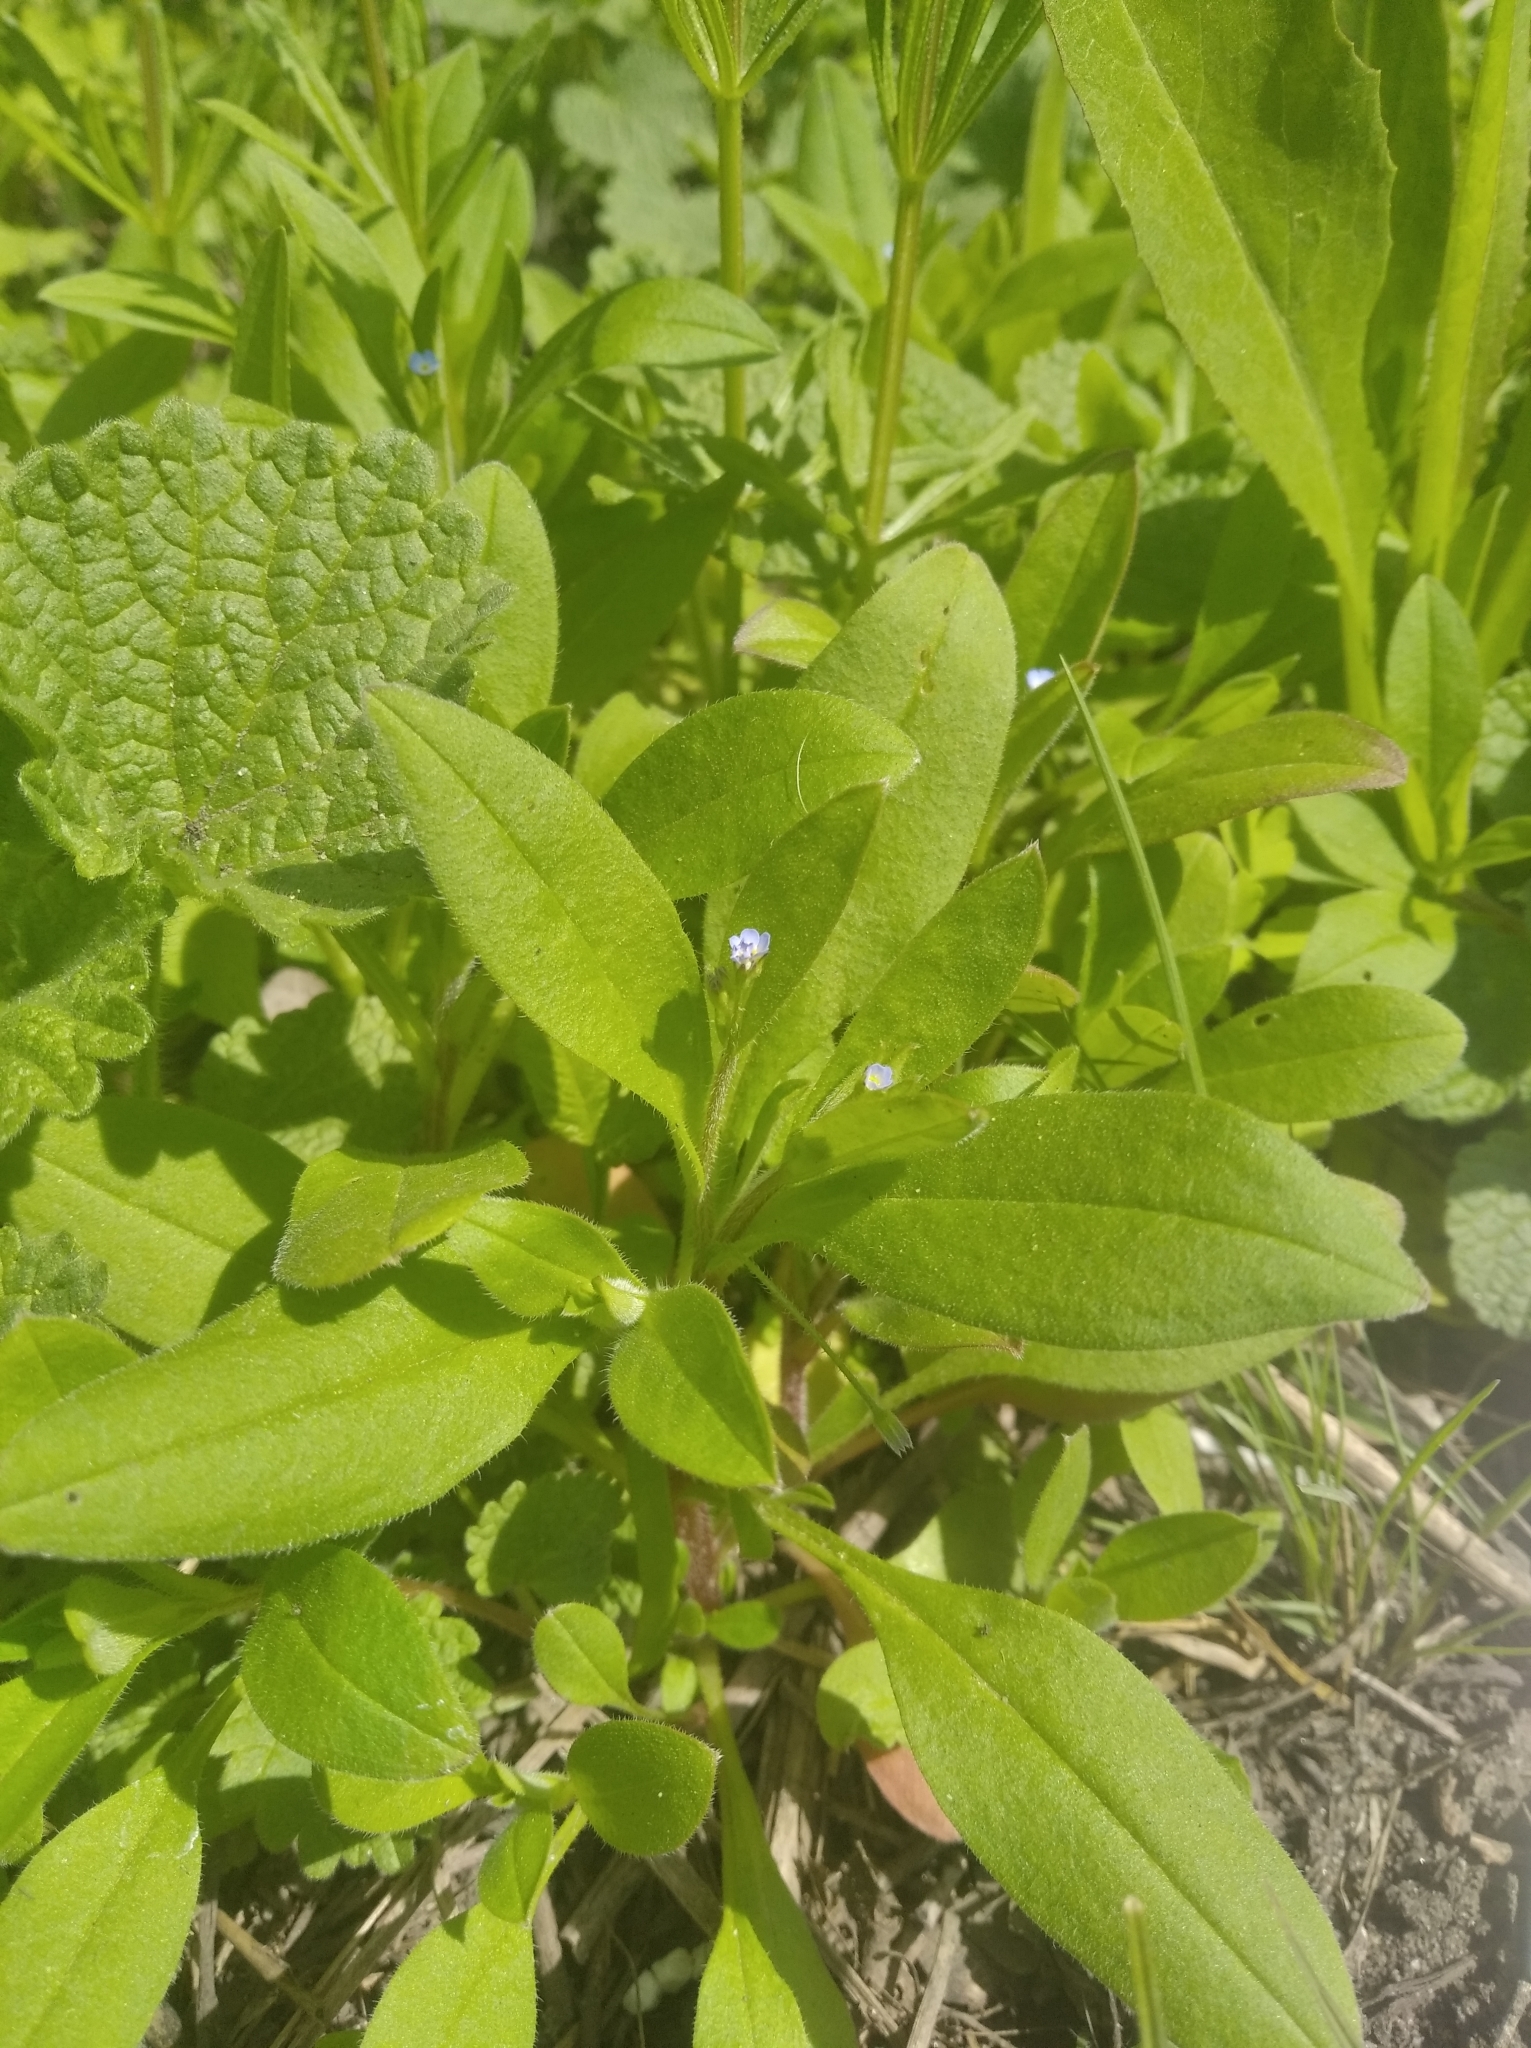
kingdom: Plantae
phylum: Tracheophyta
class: Magnoliopsida
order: Boraginales
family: Boraginaceae
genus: Myosotis
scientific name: Myosotis sparsiflora
